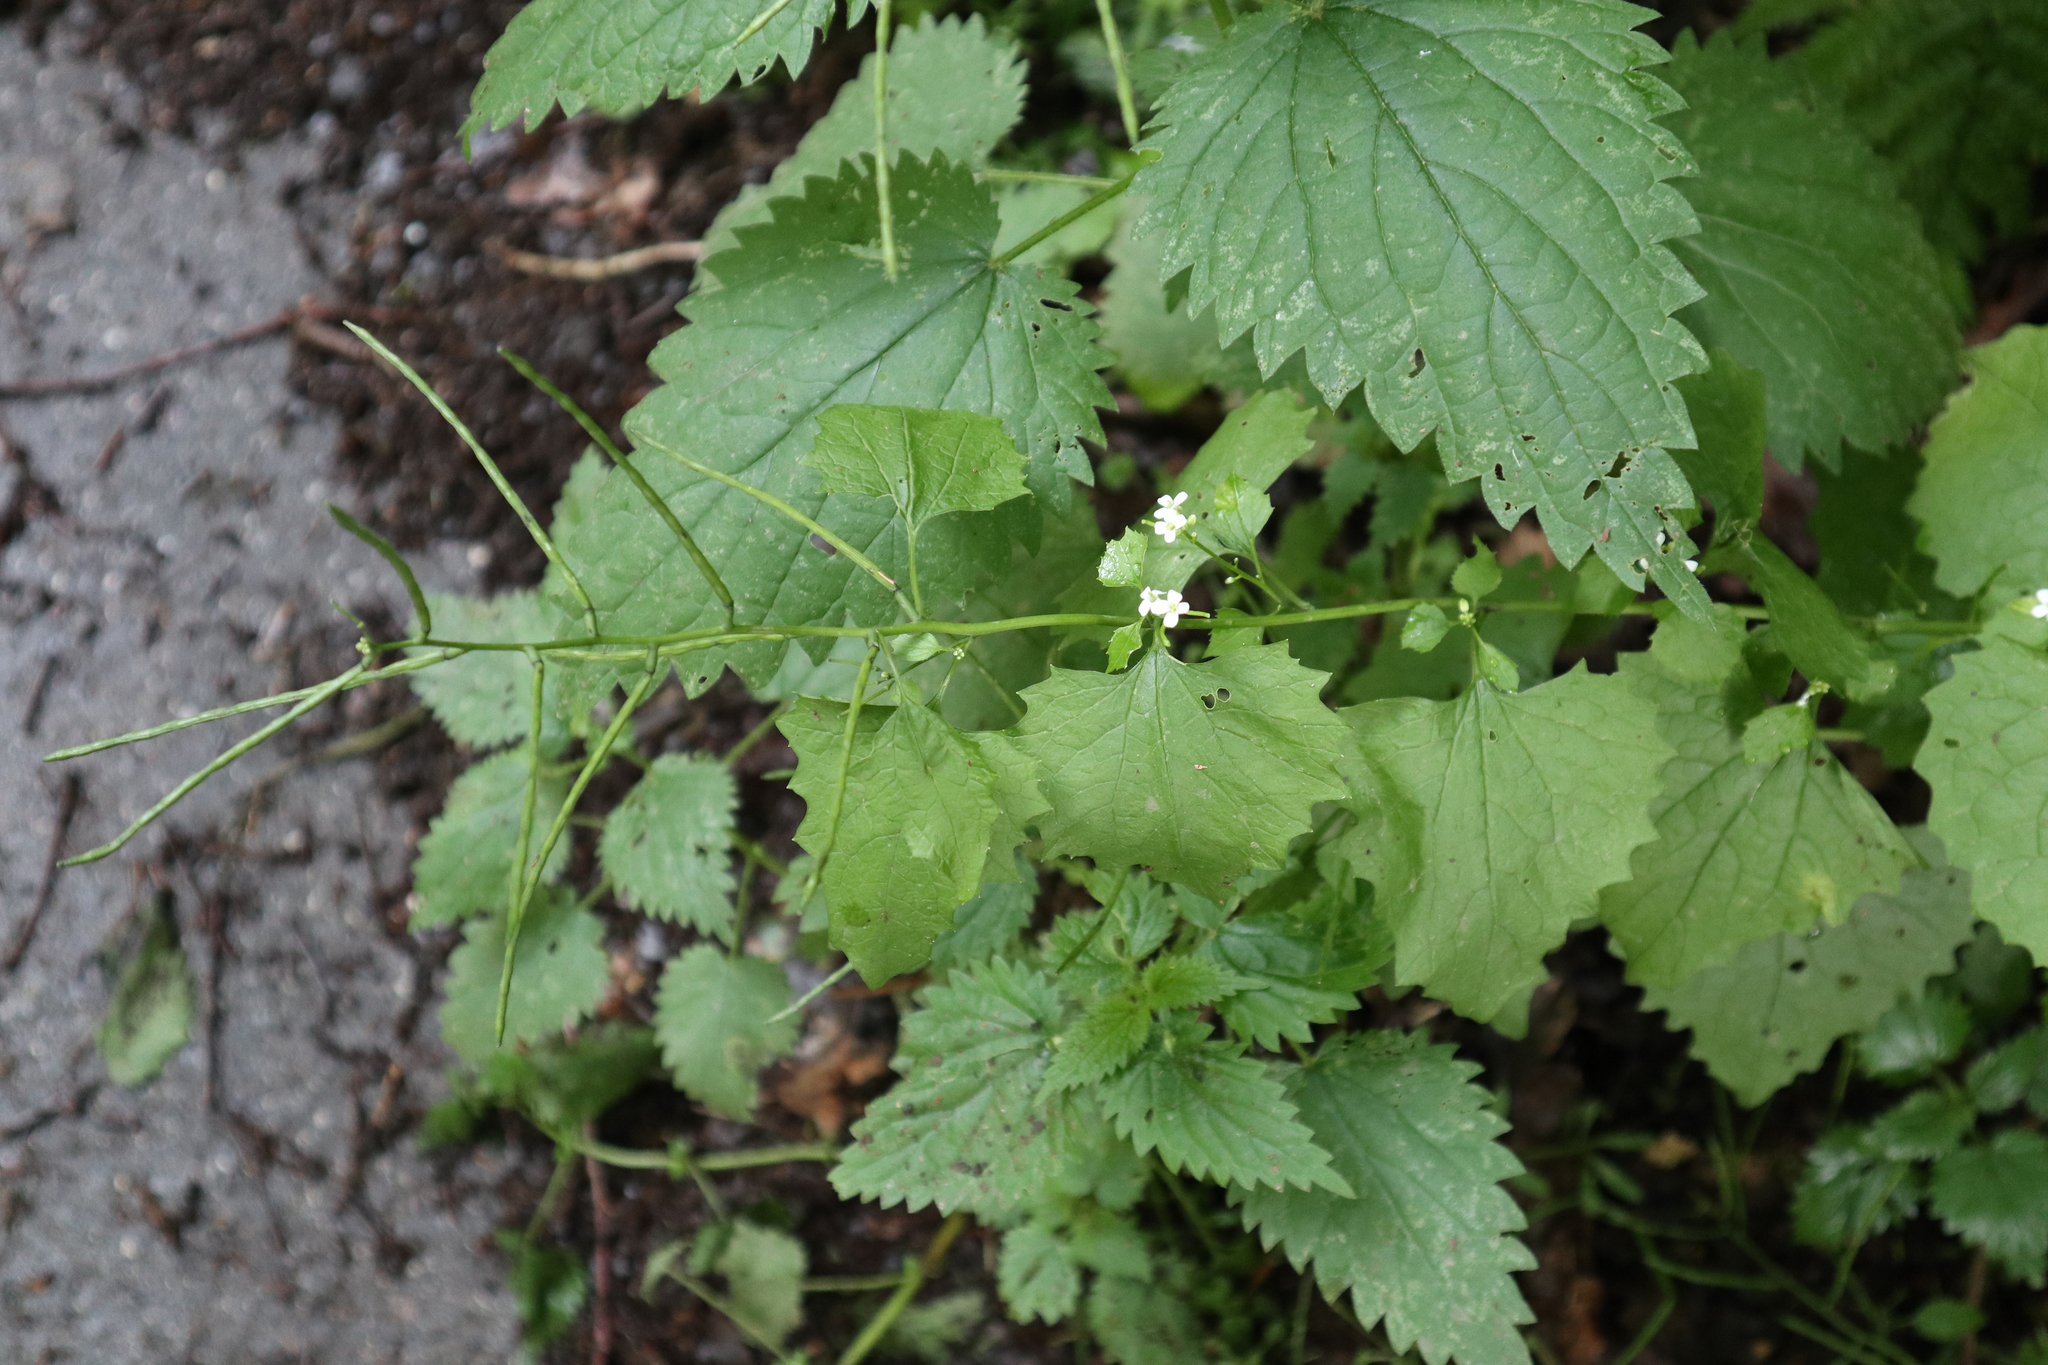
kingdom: Plantae
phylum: Tracheophyta
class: Magnoliopsida
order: Brassicales
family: Brassicaceae
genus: Alliaria
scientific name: Alliaria petiolata
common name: Garlic mustard
